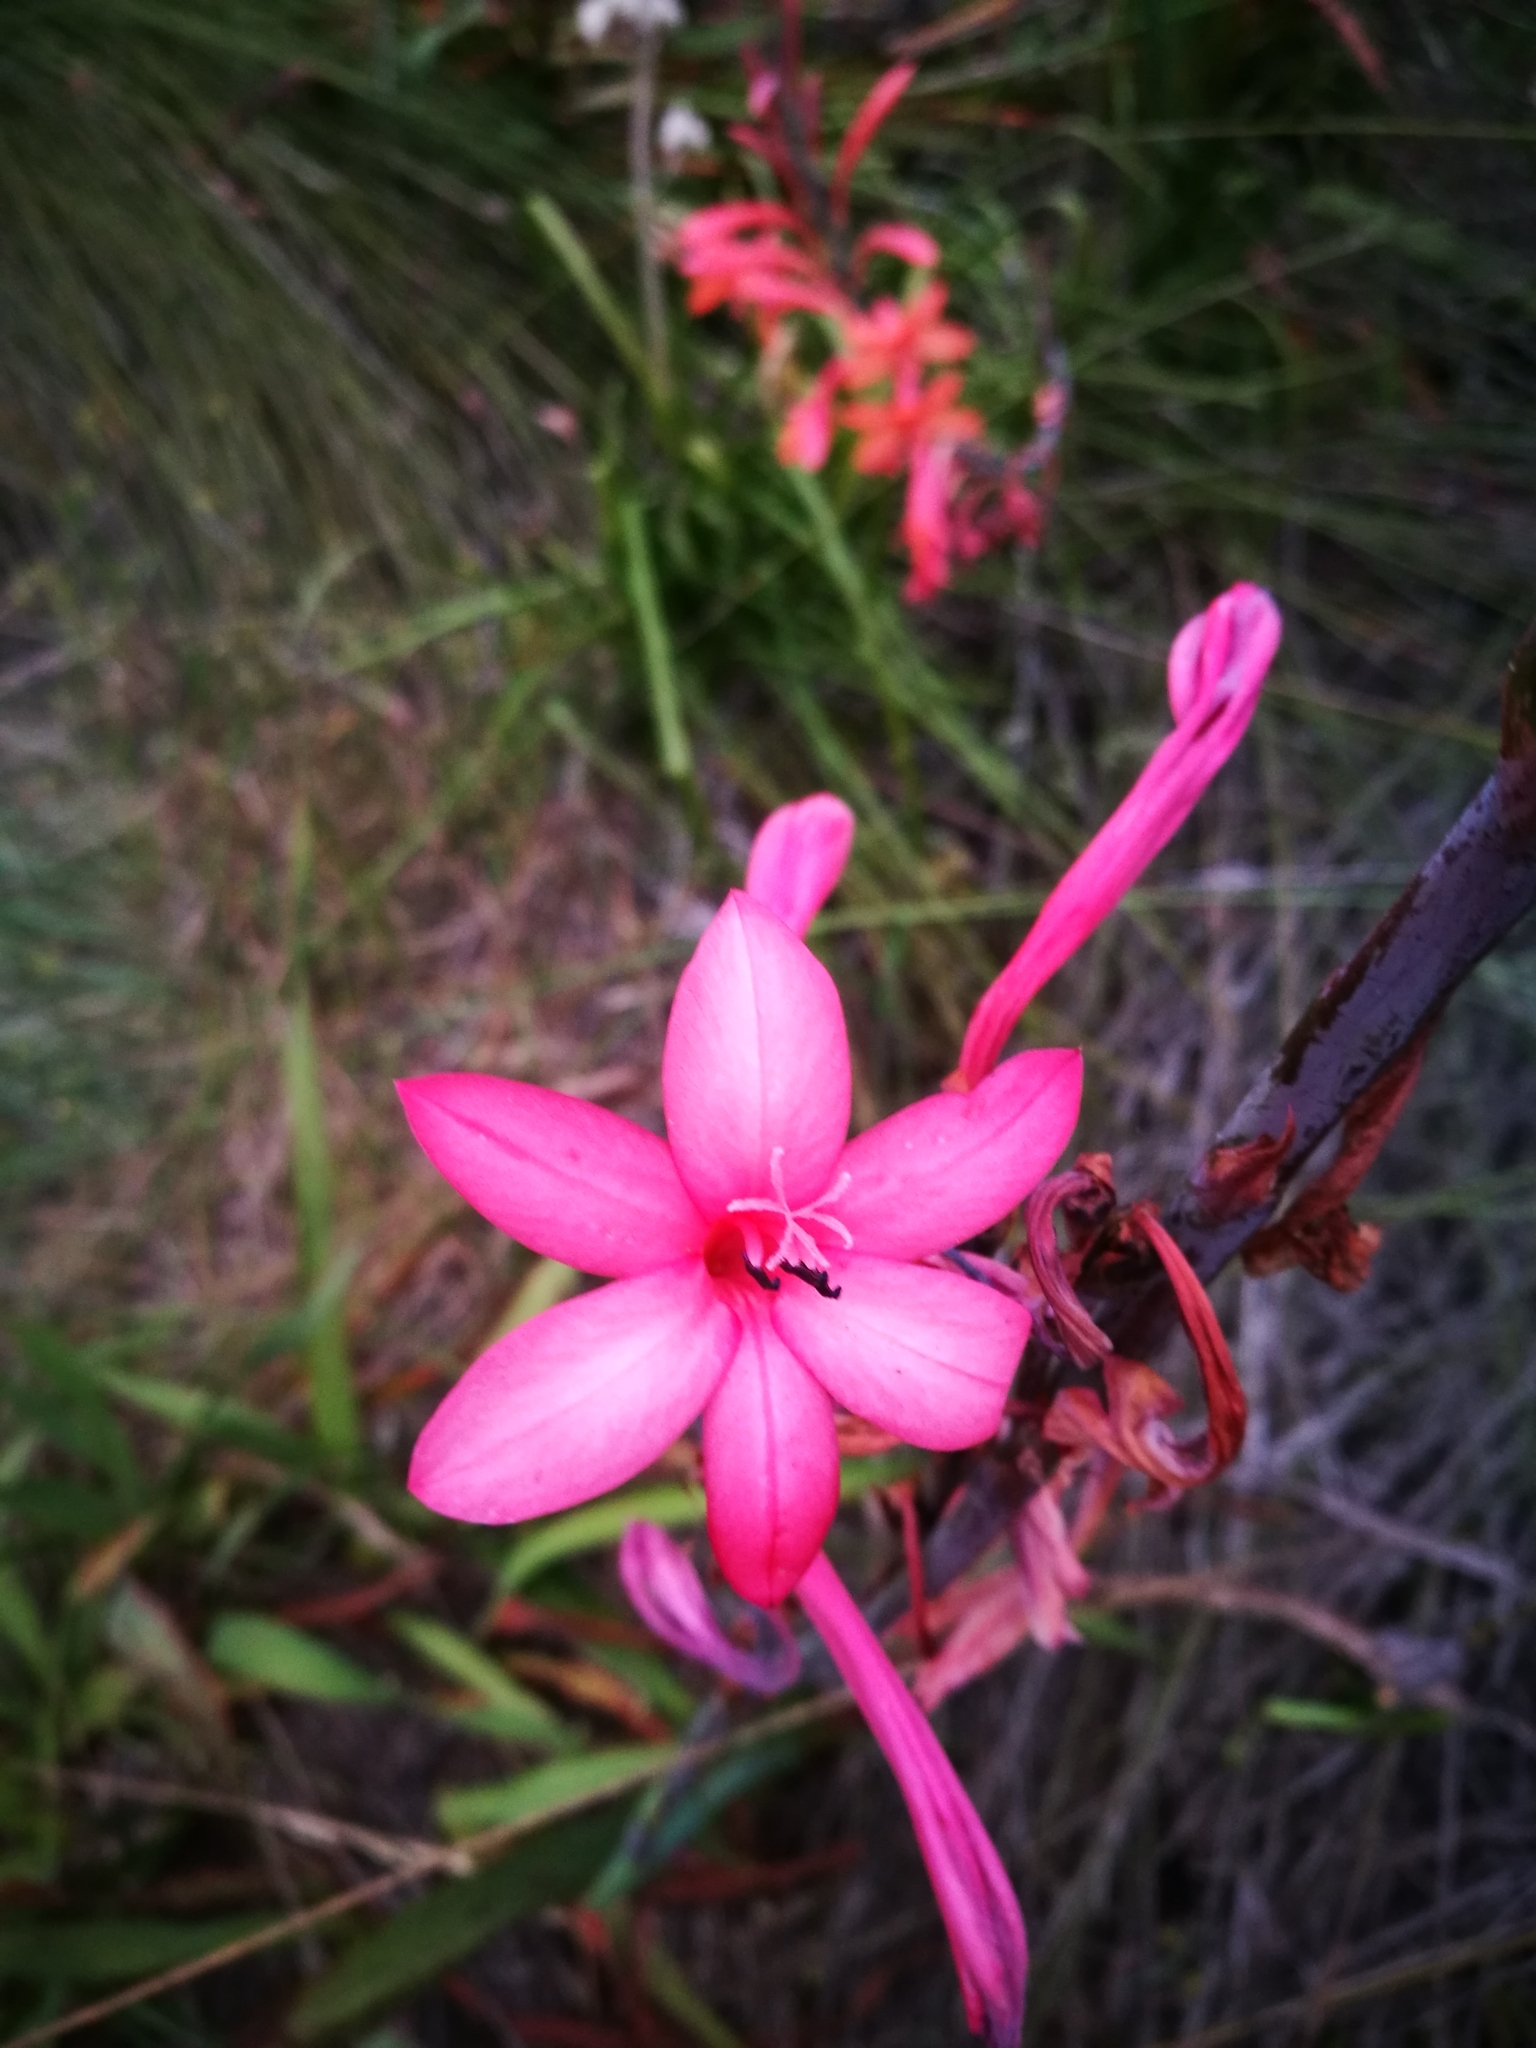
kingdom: Plantae
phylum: Tracheophyta
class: Liliopsida
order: Asparagales
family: Iridaceae
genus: Watsonia
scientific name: Watsonia fourcadei
